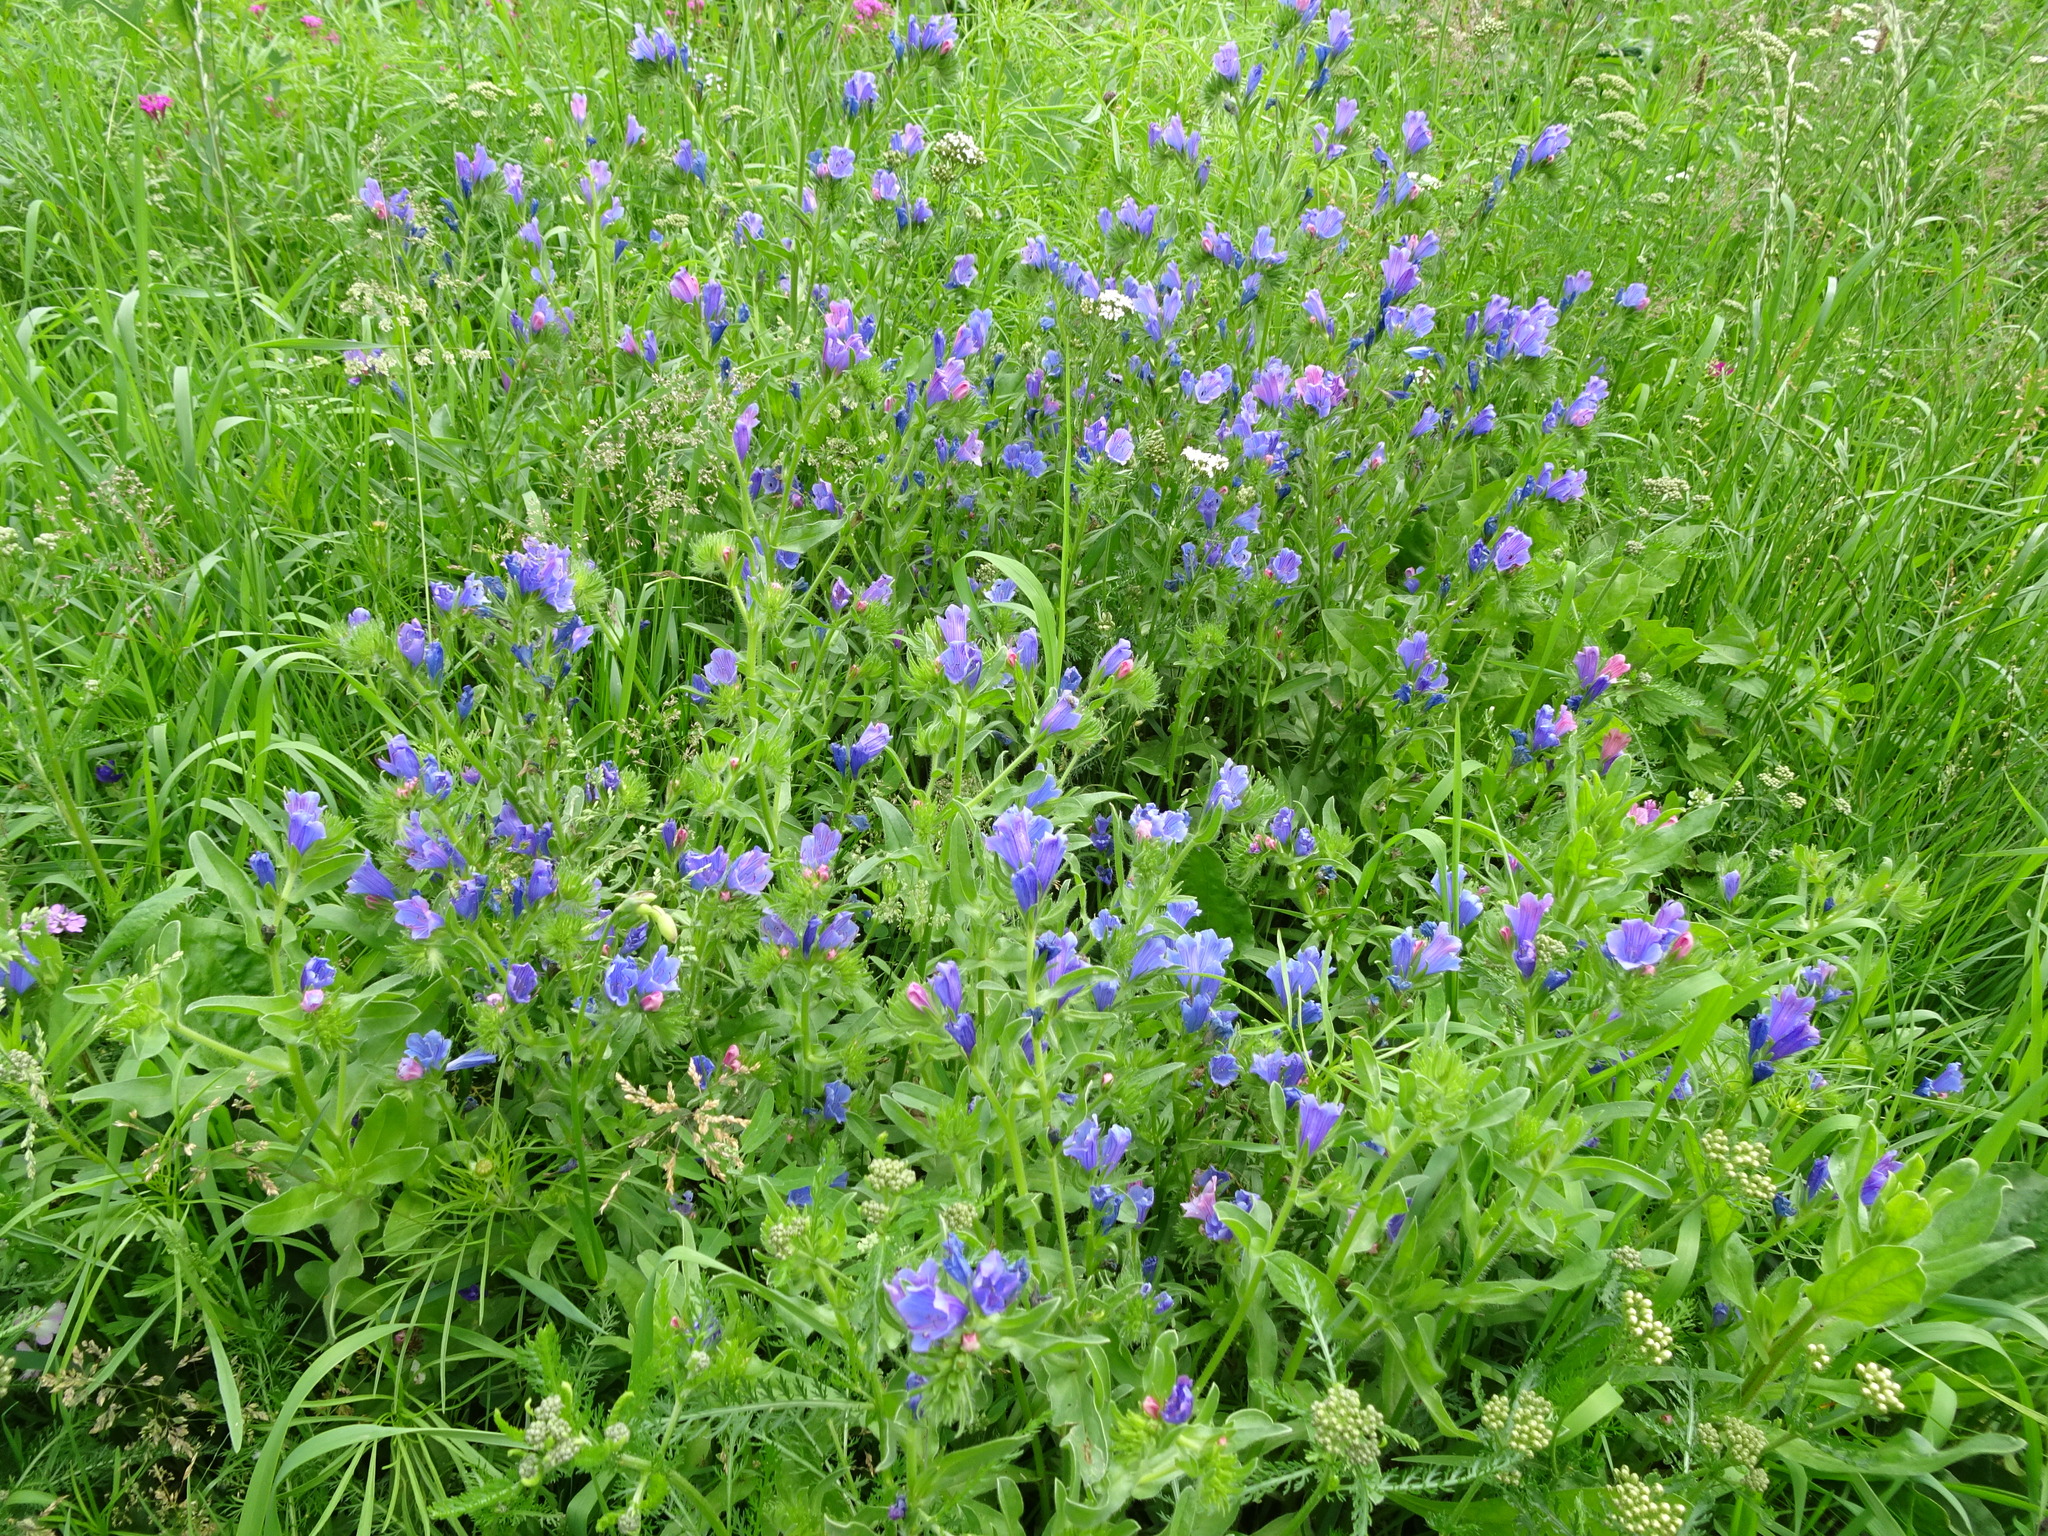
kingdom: Plantae
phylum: Tracheophyta
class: Magnoliopsida
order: Boraginales
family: Boraginaceae
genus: Echium
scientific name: Echium plantagineum
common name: Purple viper's-bugloss
